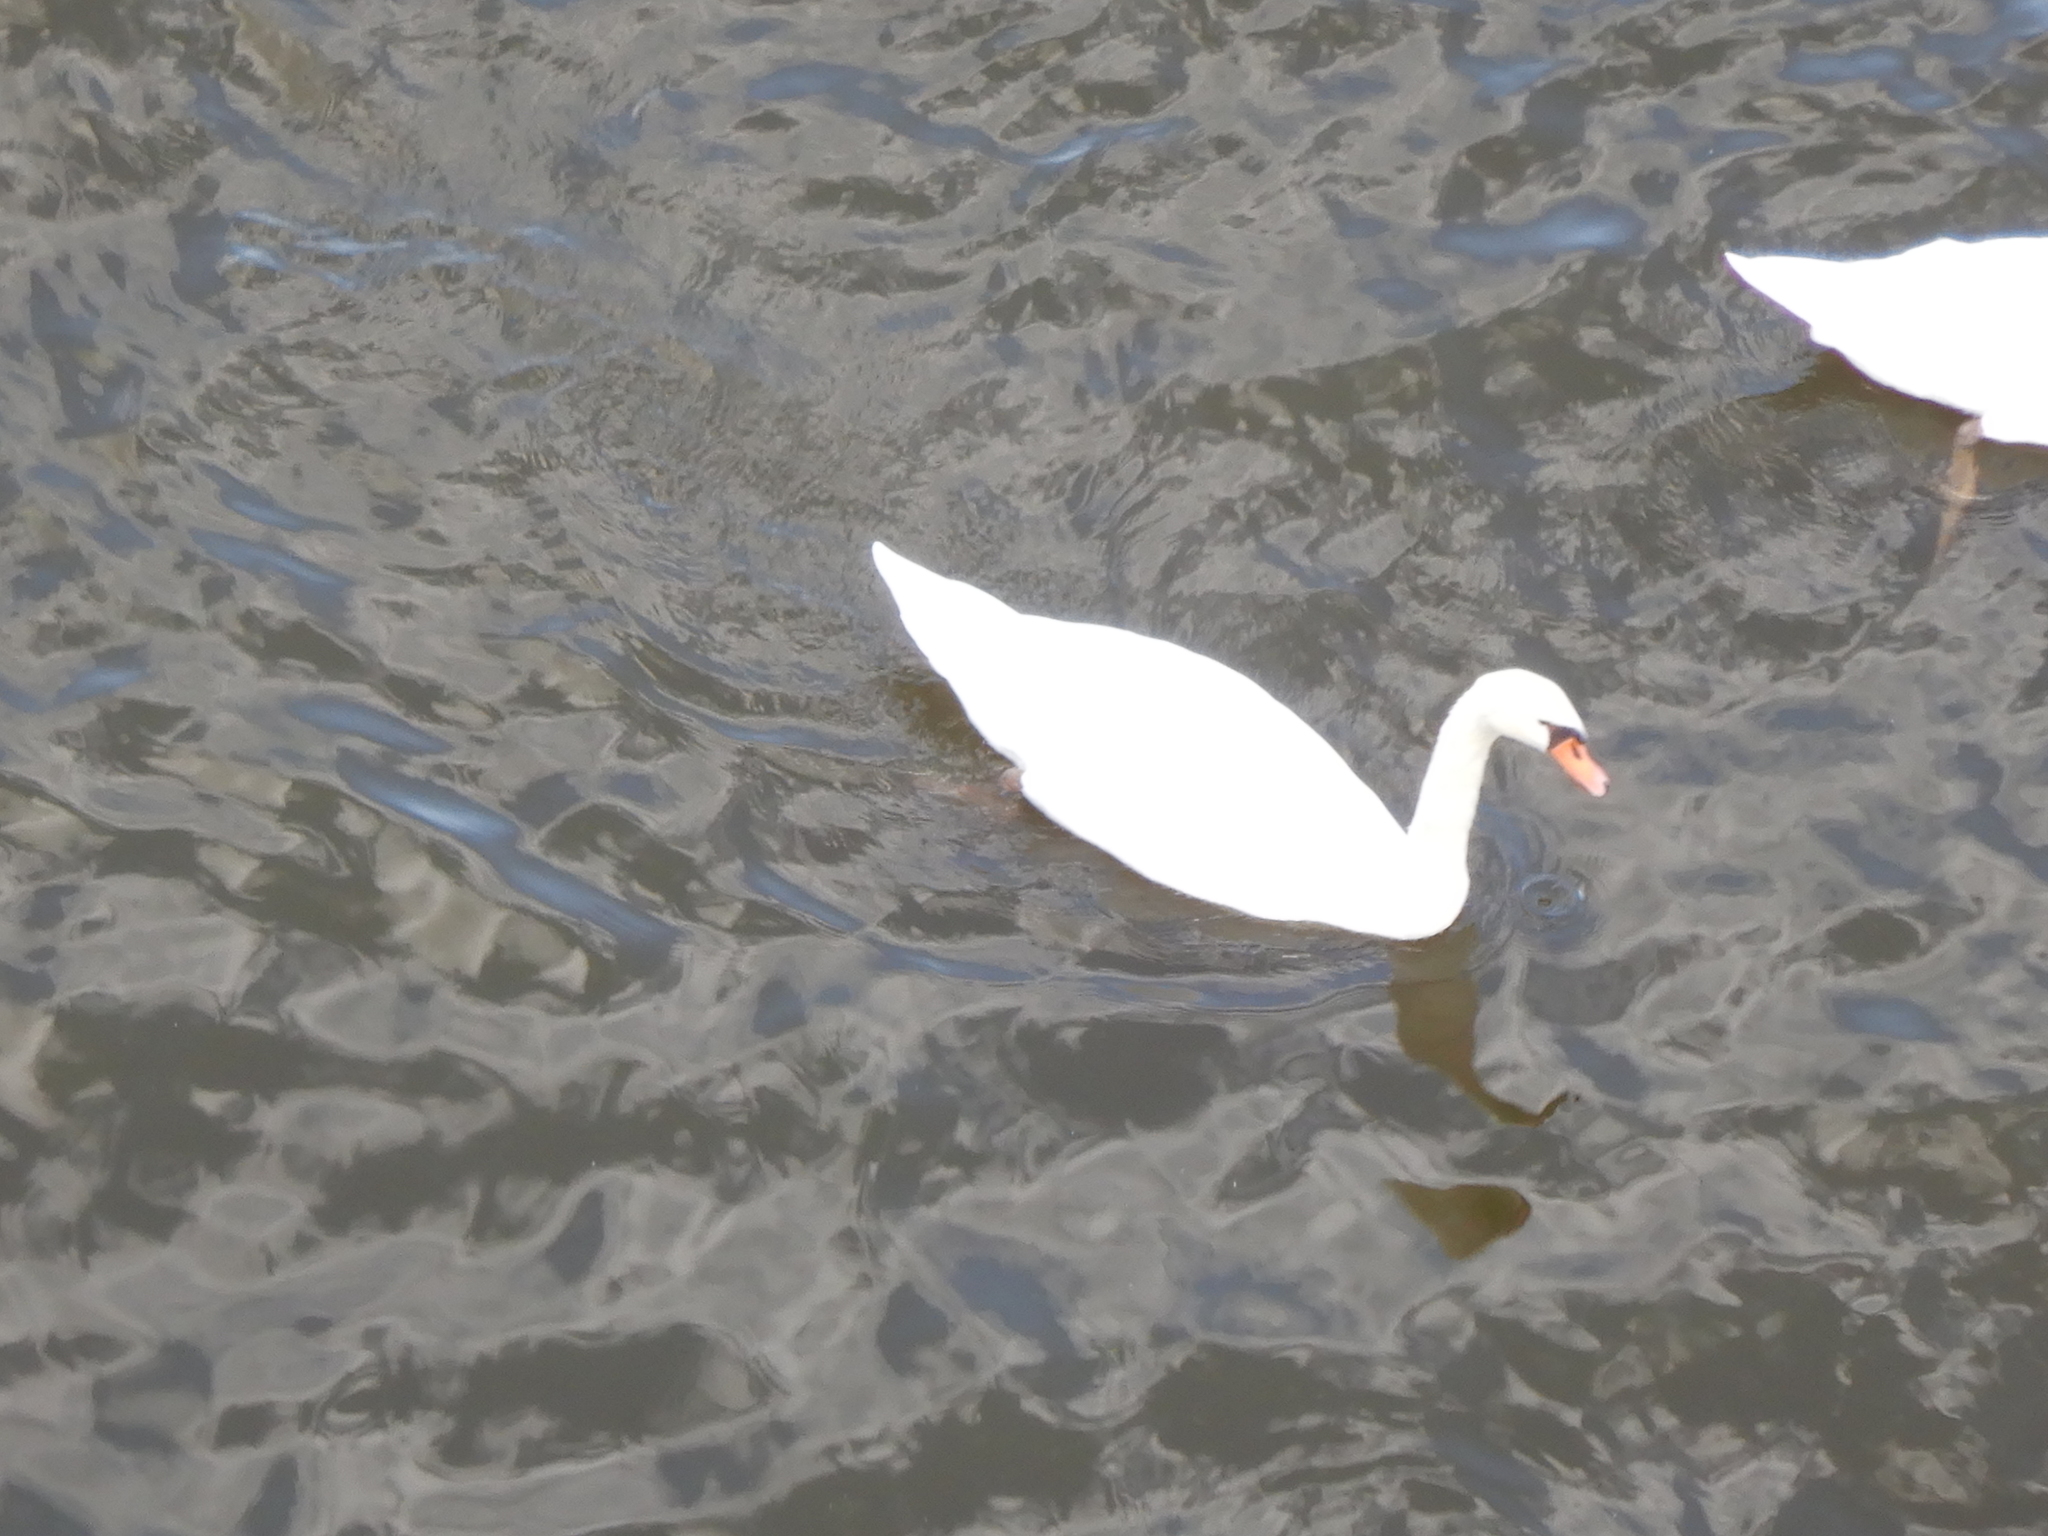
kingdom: Animalia
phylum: Chordata
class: Aves
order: Anseriformes
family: Anatidae
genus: Cygnus
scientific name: Cygnus olor
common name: Mute swan
